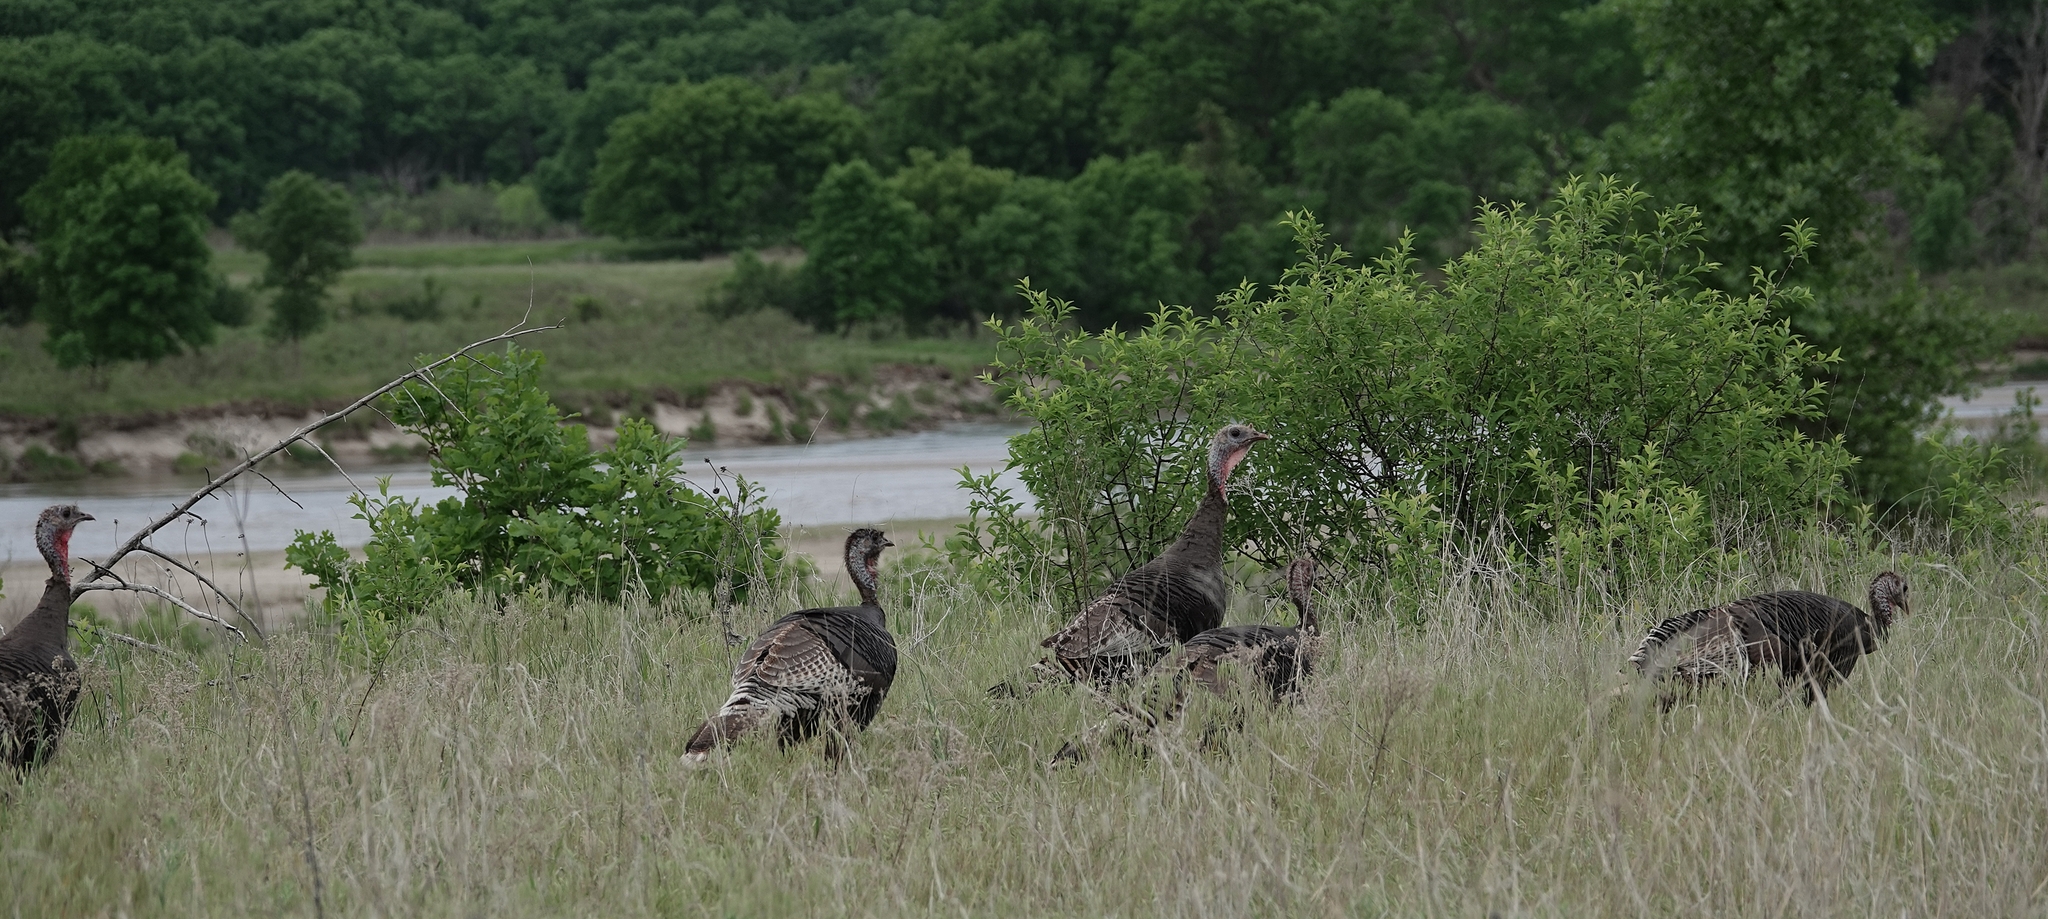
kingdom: Animalia
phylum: Chordata
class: Aves
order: Galliformes
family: Phasianidae
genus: Meleagris
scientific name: Meleagris gallopavo
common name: Wild turkey
